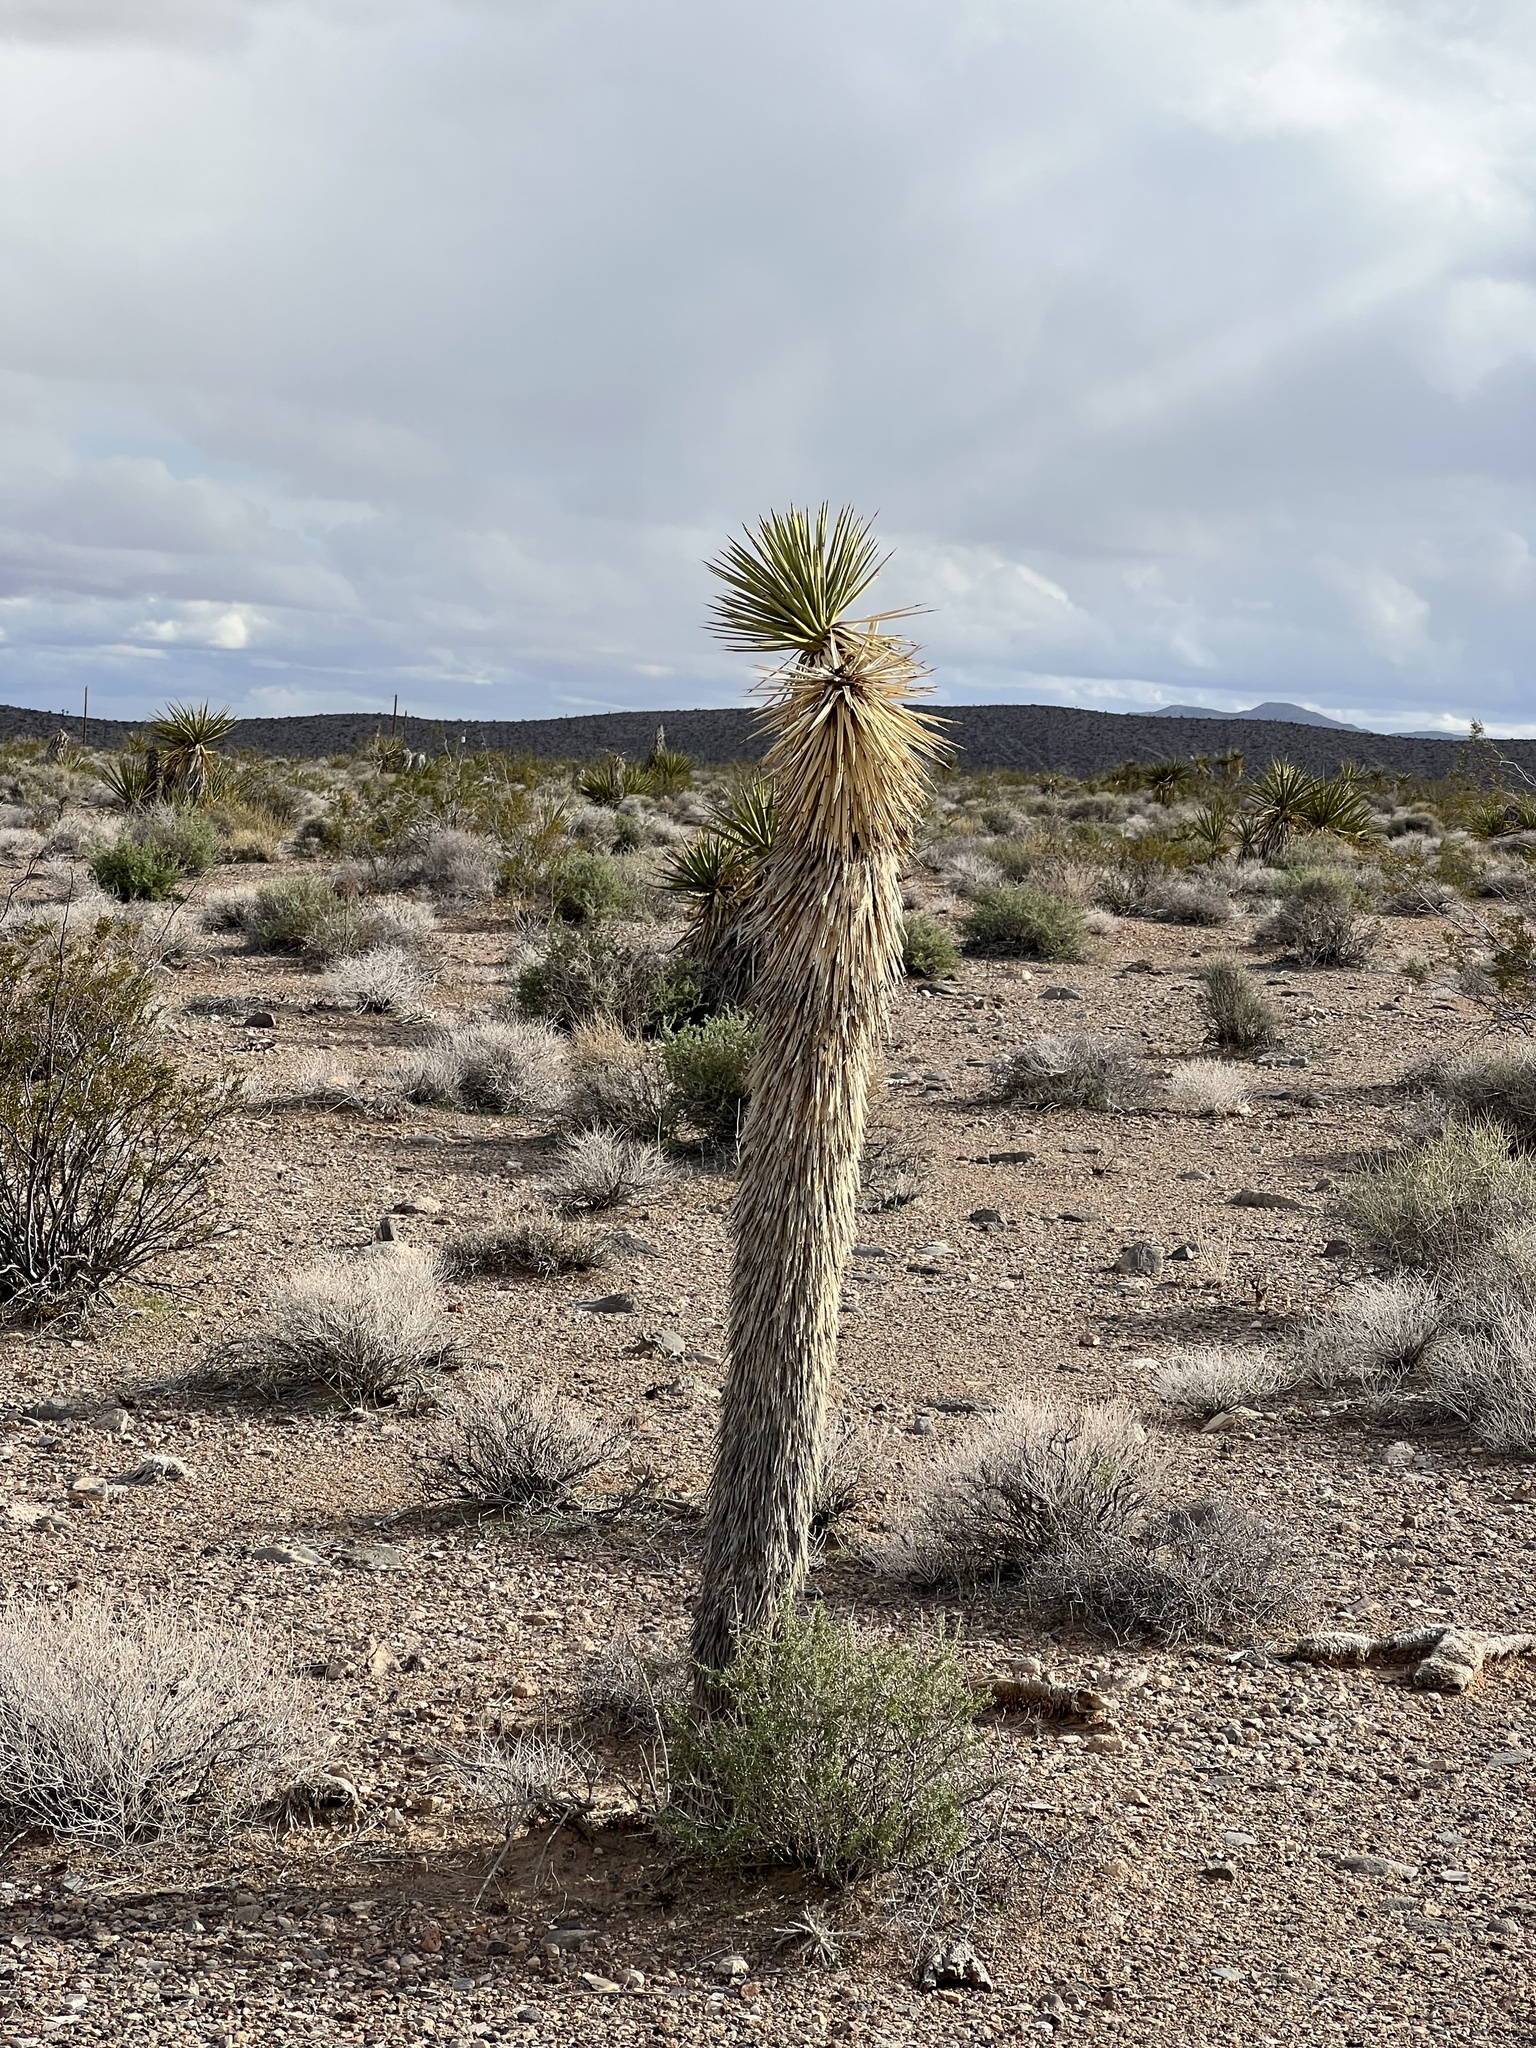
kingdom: Plantae
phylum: Tracheophyta
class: Liliopsida
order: Asparagales
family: Asparagaceae
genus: Yucca
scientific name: Yucca brevifolia
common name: Joshua tree
